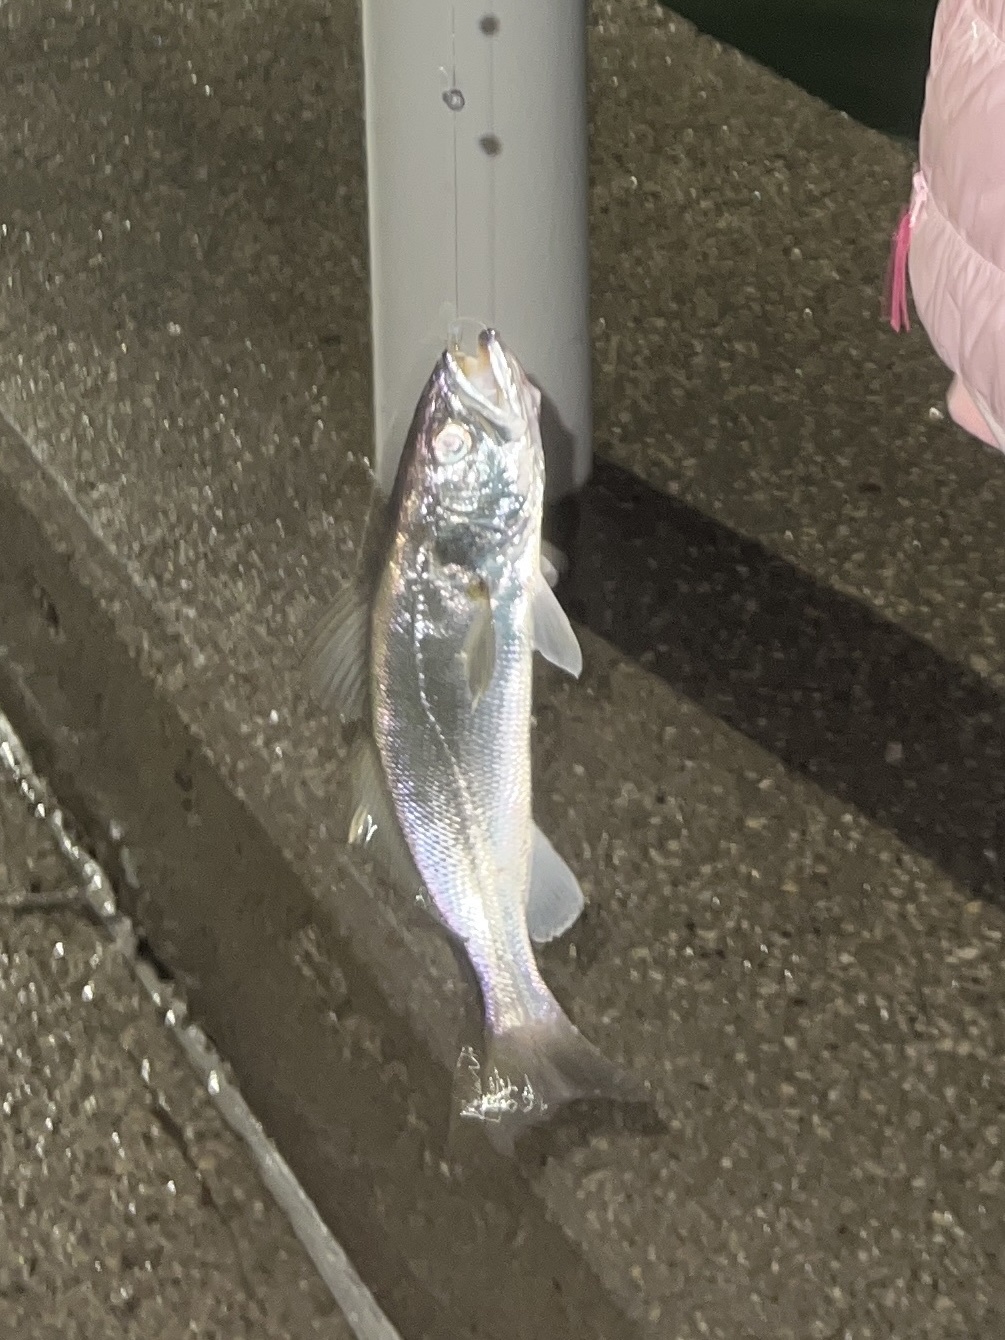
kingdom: Animalia
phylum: Chordata
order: Perciformes
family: Sciaenidae
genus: Cynoscion
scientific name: Cynoscion arenarius
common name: Sand seatrout
